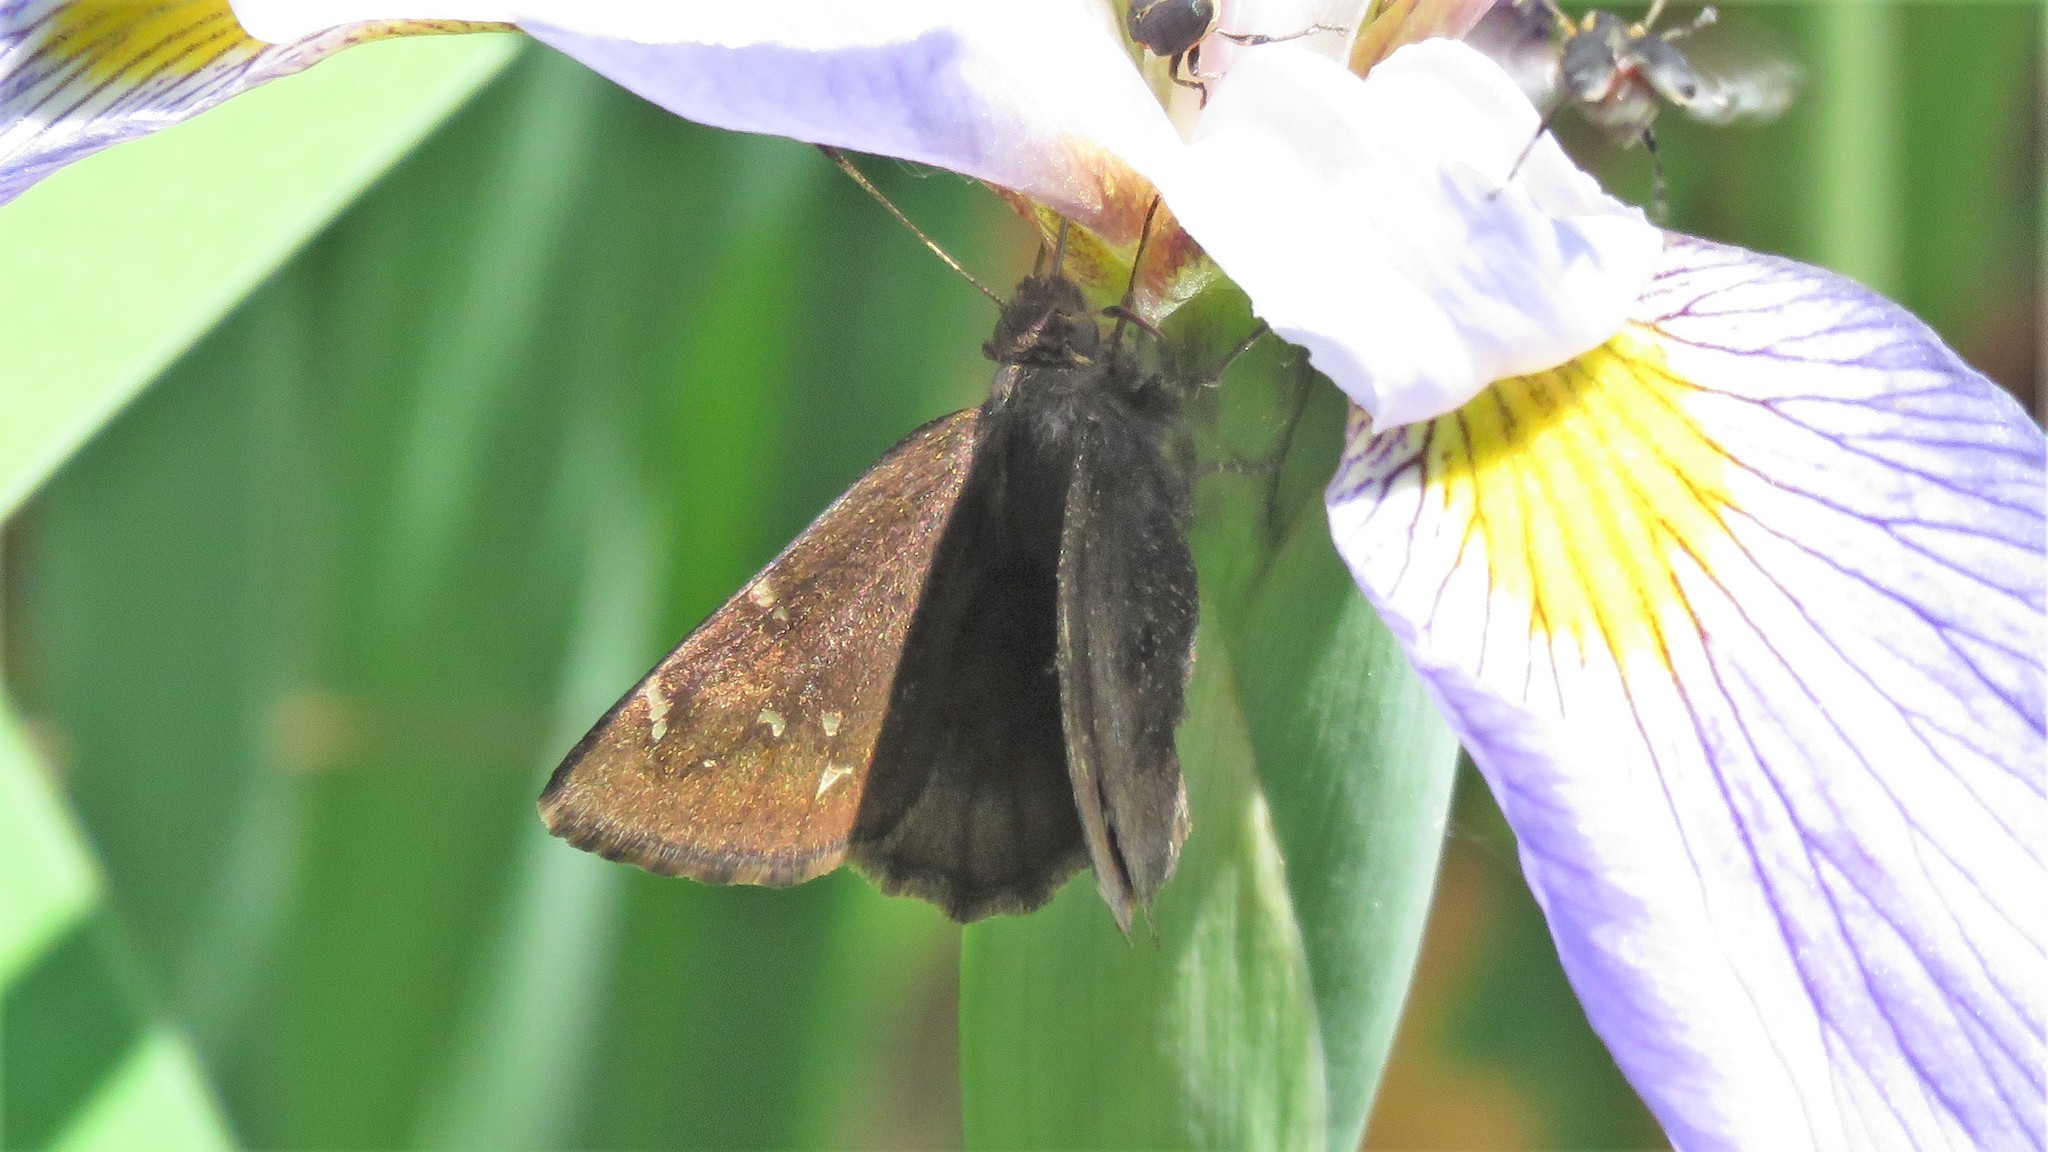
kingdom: Animalia
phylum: Arthropoda
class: Insecta
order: Lepidoptera
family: Hesperiidae
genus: Thorybes
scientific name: Thorybes pylades
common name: Northern cloudywing
